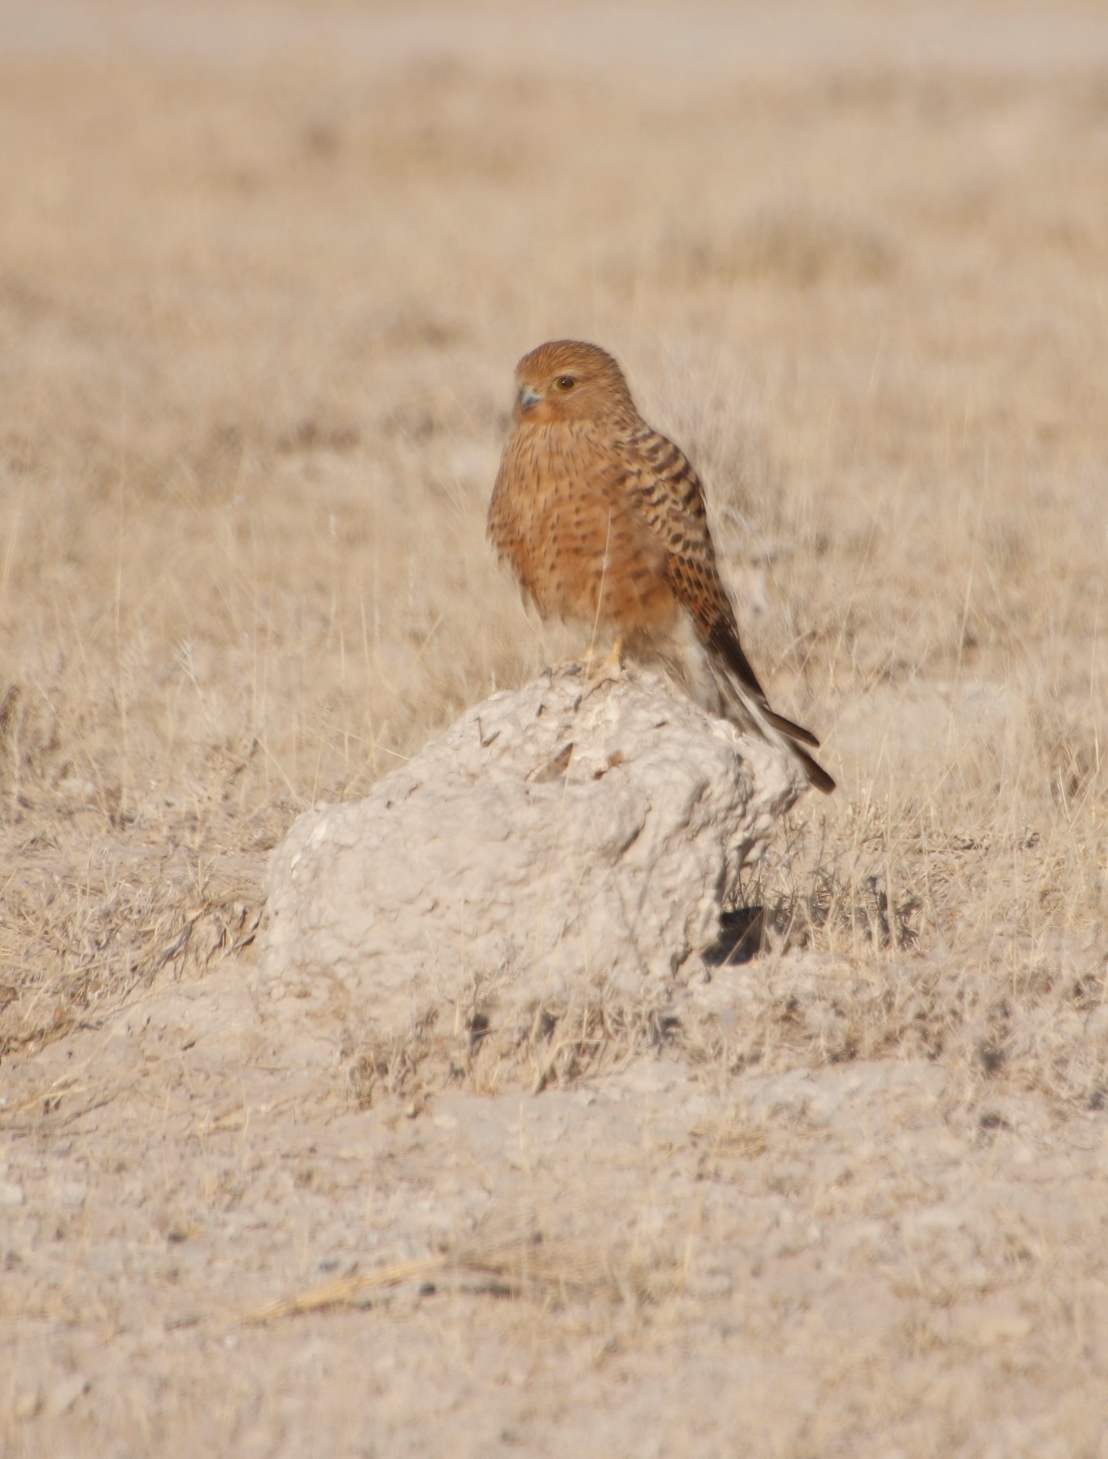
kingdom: Animalia
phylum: Chordata
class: Aves
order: Falconiformes
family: Falconidae
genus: Falco
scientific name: Falco rupicoloides
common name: Greater kestrel
